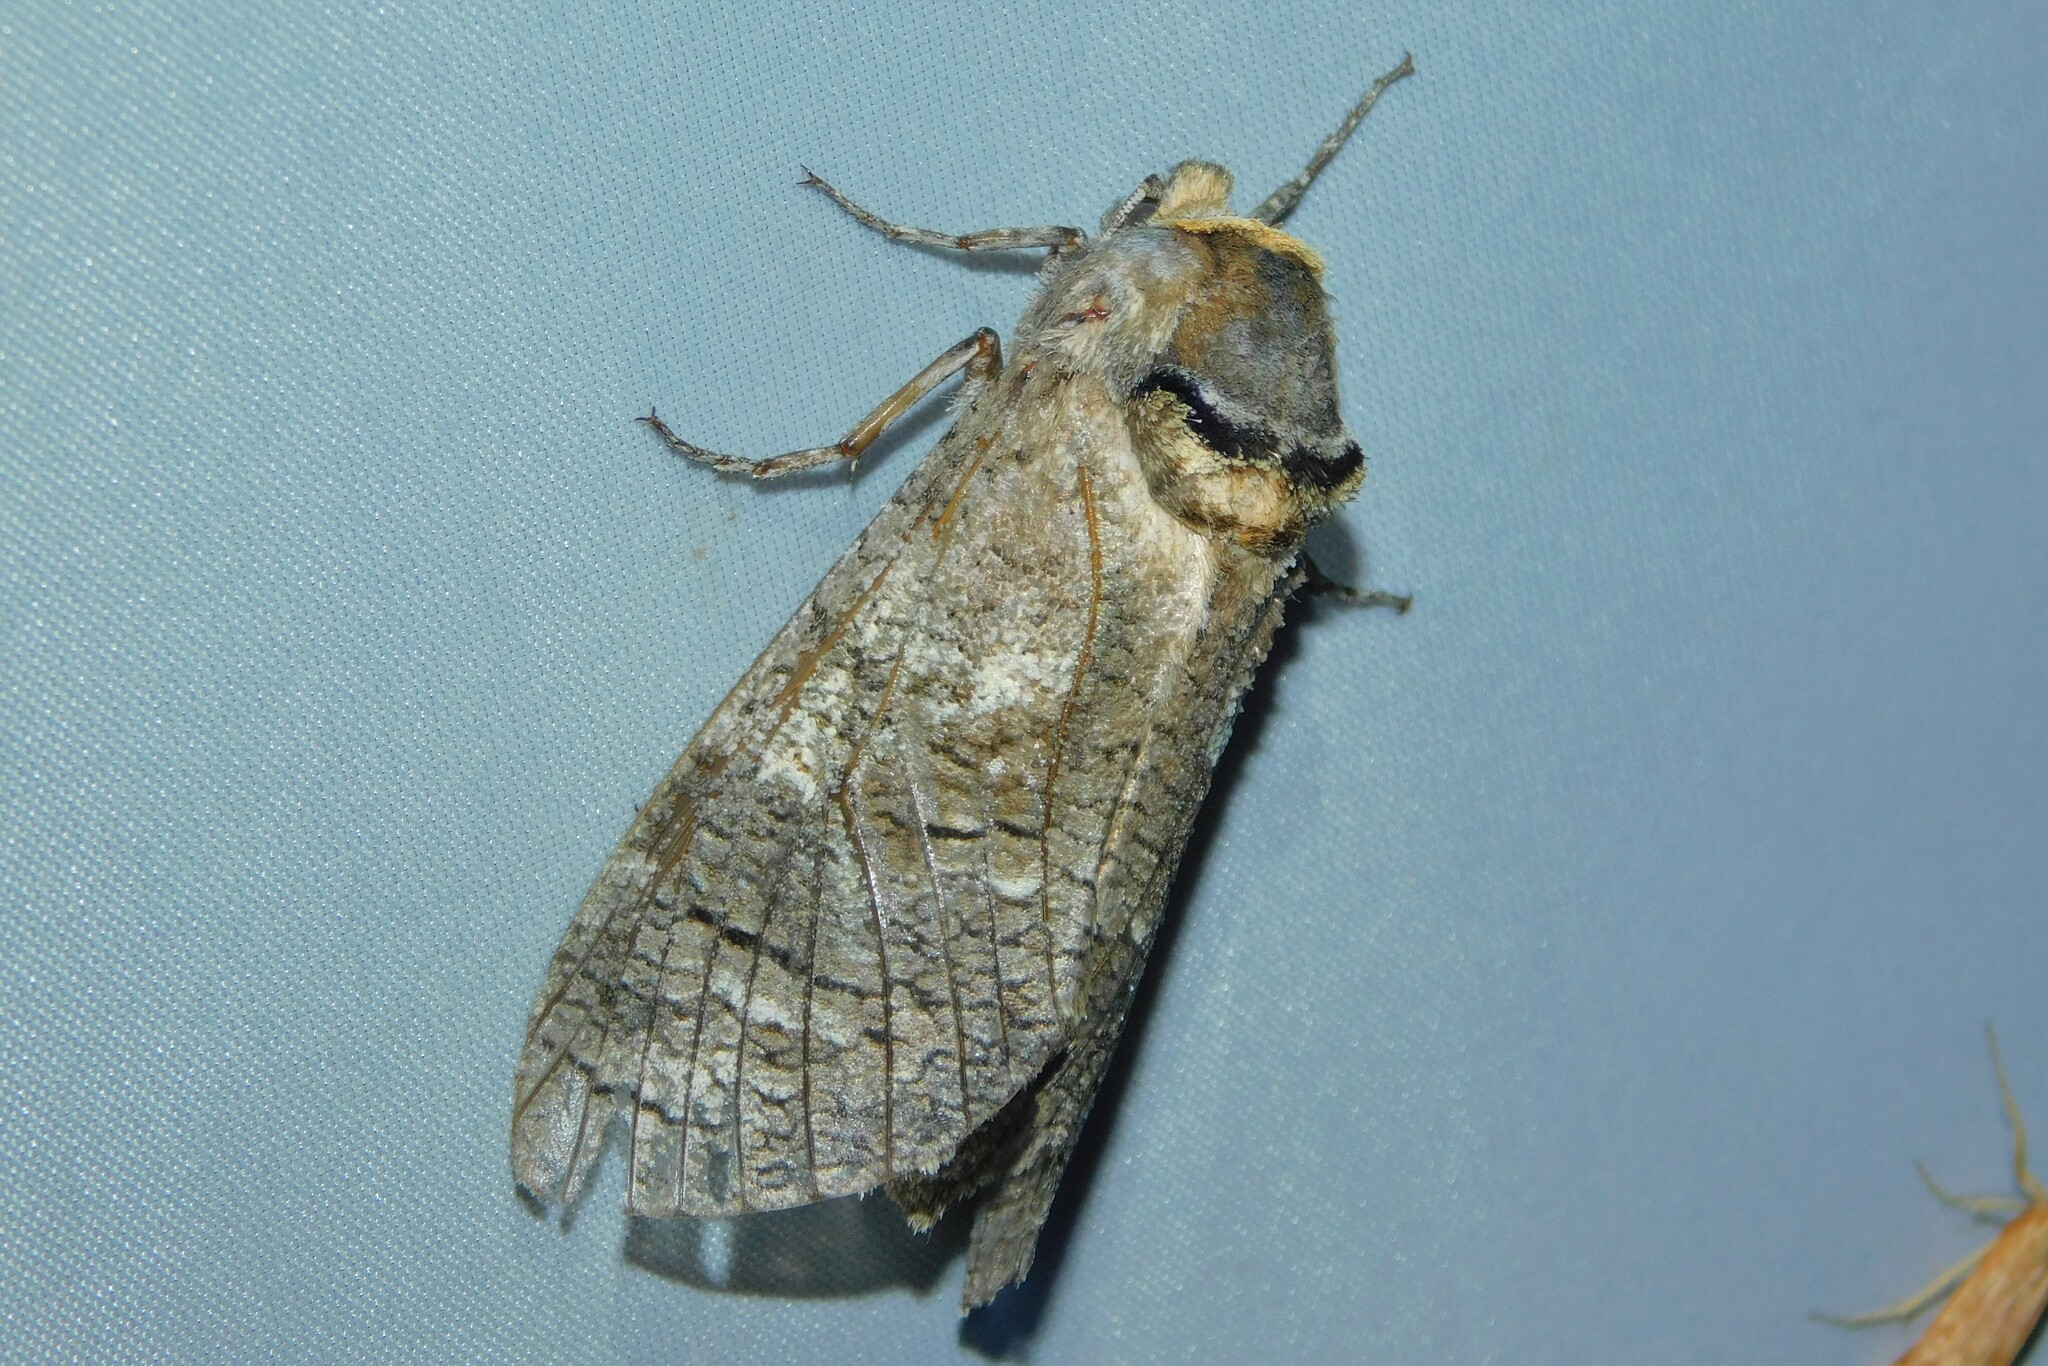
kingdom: Animalia
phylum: Arthropoda
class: Insecta
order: Lepidoptera
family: Cossidae
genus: Cossus
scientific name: Cossus cossus
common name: Goat moth
